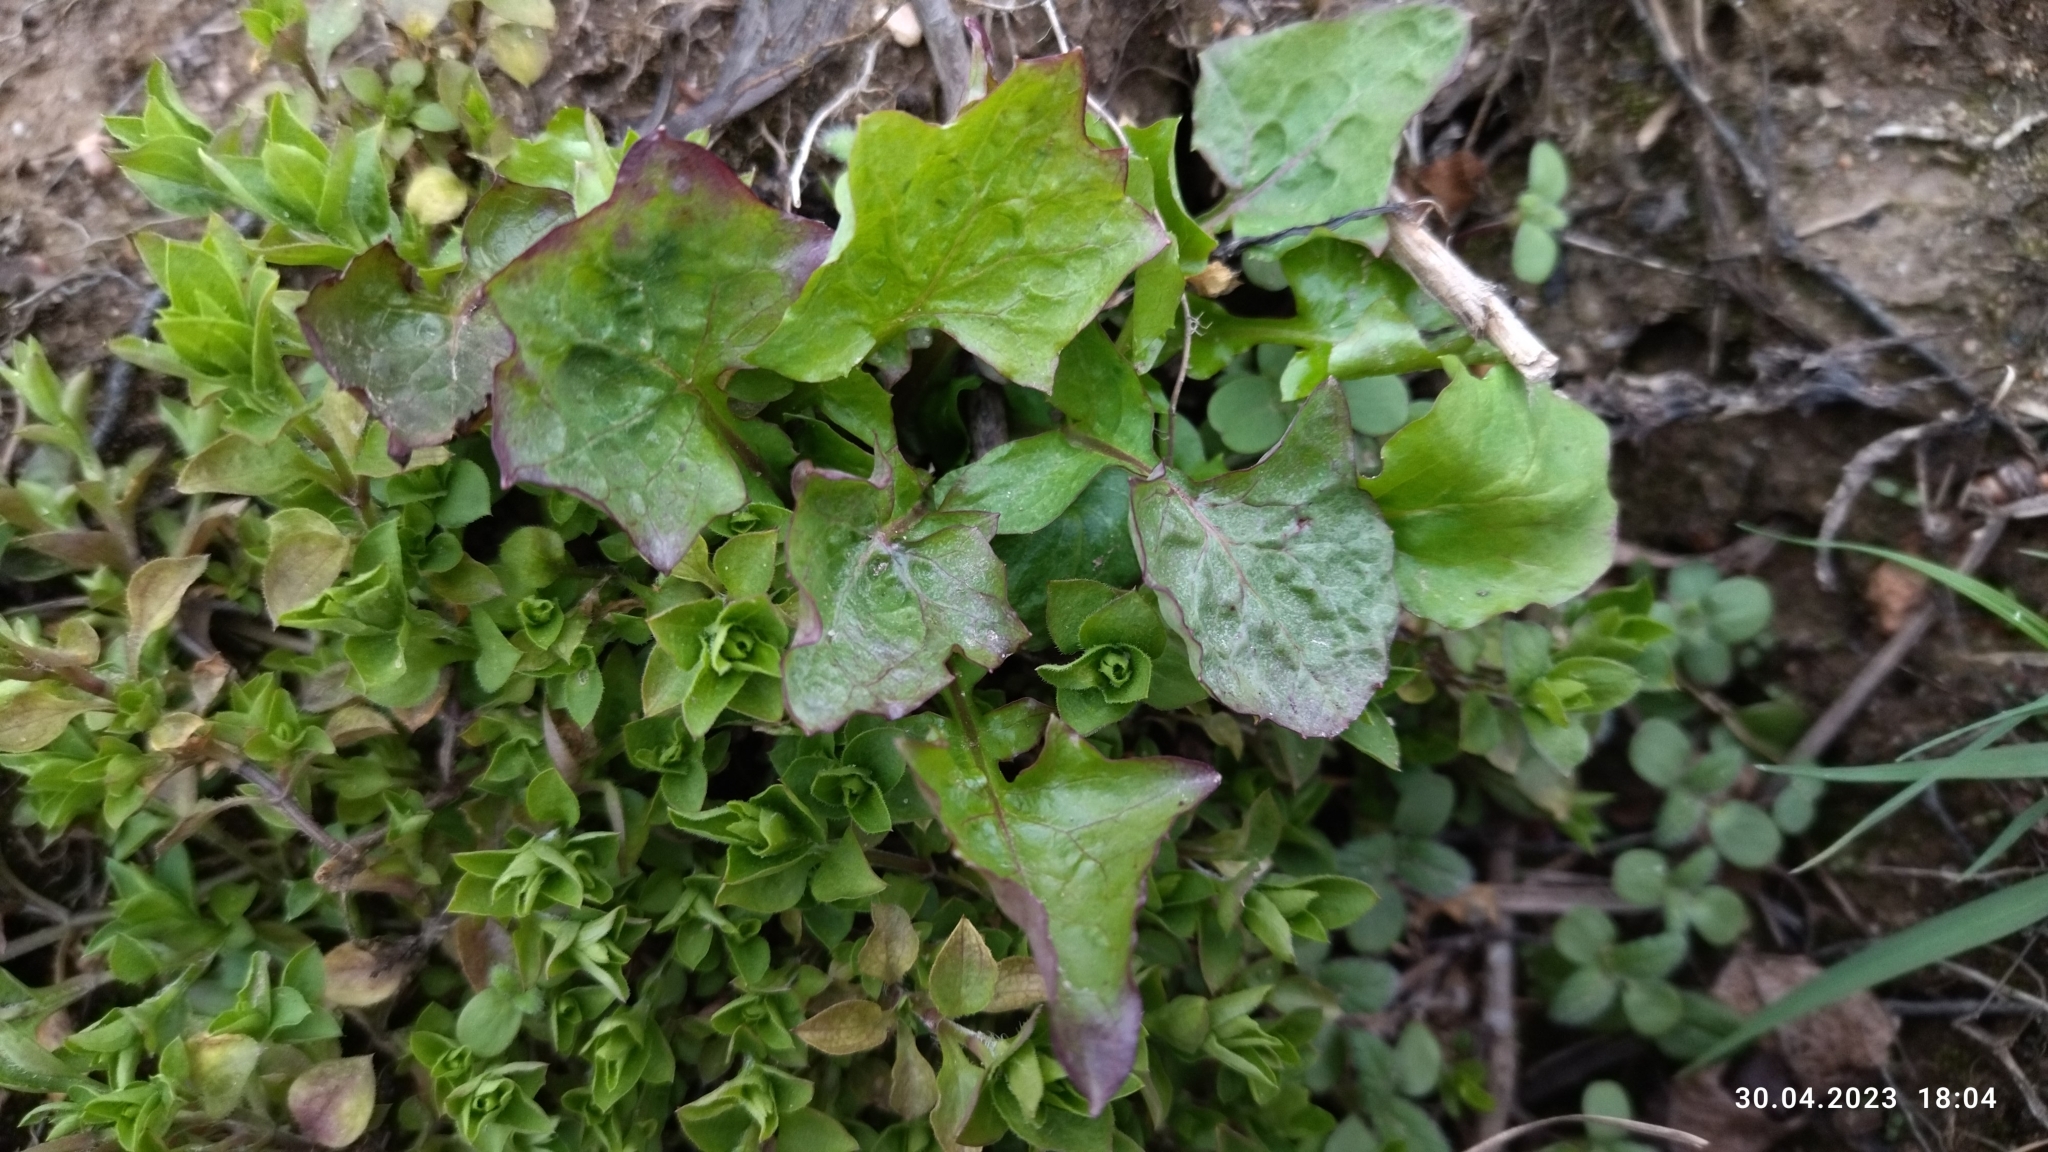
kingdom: Plantae
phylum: Tracheophyta
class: Magnoliopsida
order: Asterales
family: Asteraceae
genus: Mycelis
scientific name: Mycelis muralis
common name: Wall lettuce
